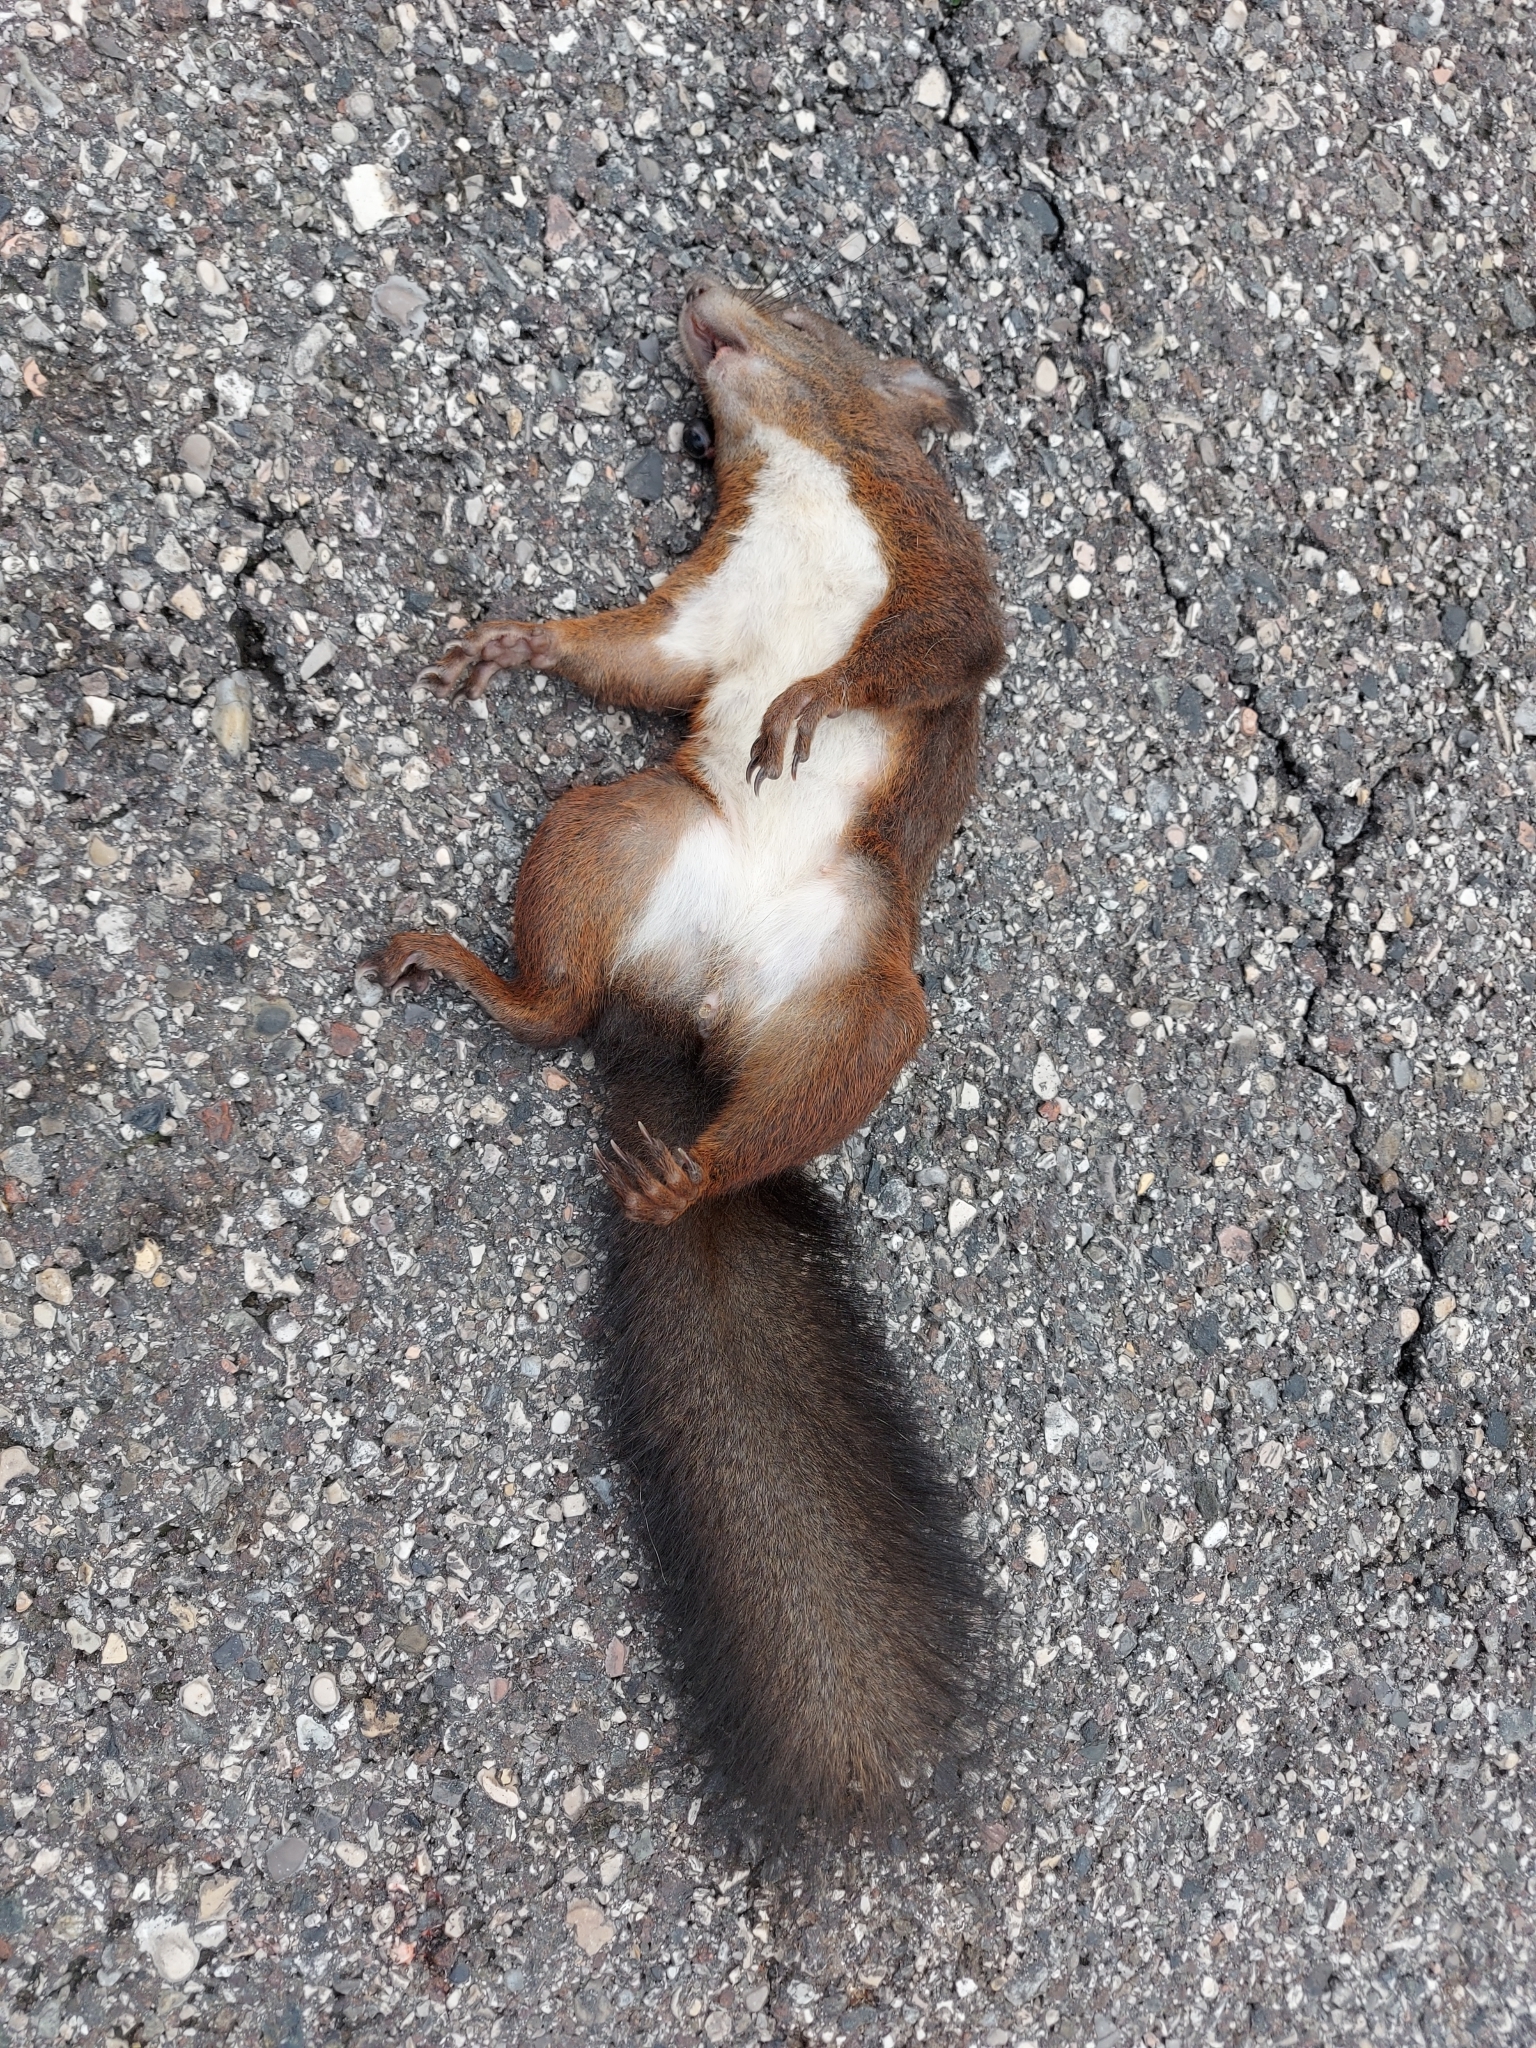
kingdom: Animalia
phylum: Chordata
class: Mammalia
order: Rodentia
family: Sciuridae
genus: Sciurus
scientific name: Sciurus vulgaris
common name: Eurasian red squirrel
